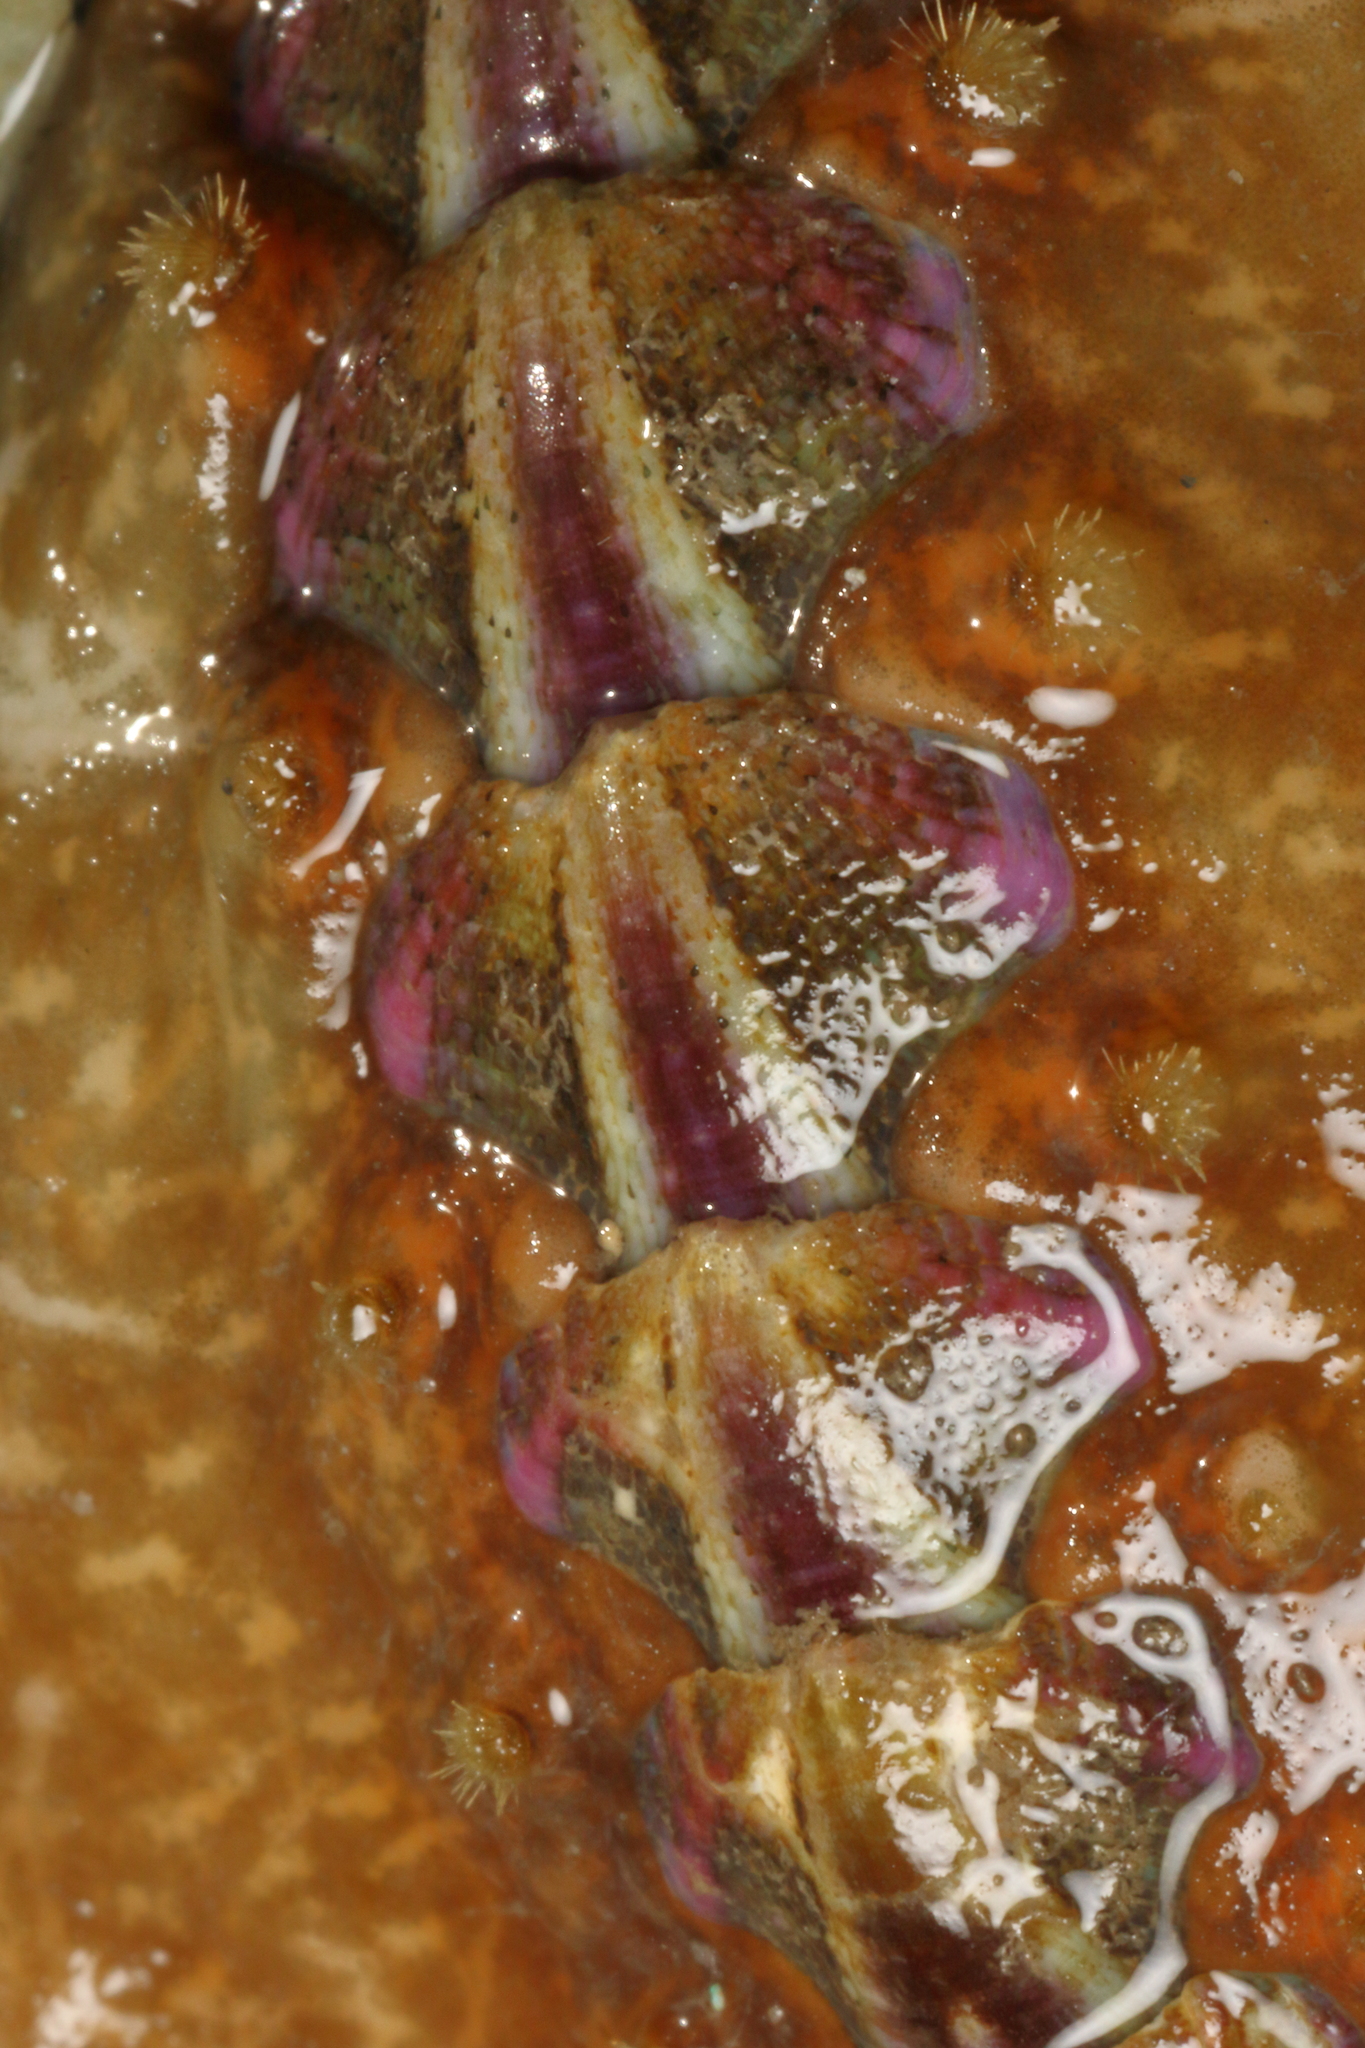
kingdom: Animalia
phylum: Mollusca
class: Polyplacophora
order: Chitonida
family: Acanthochitonidae
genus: Notoplax
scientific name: Notoplax violacea
